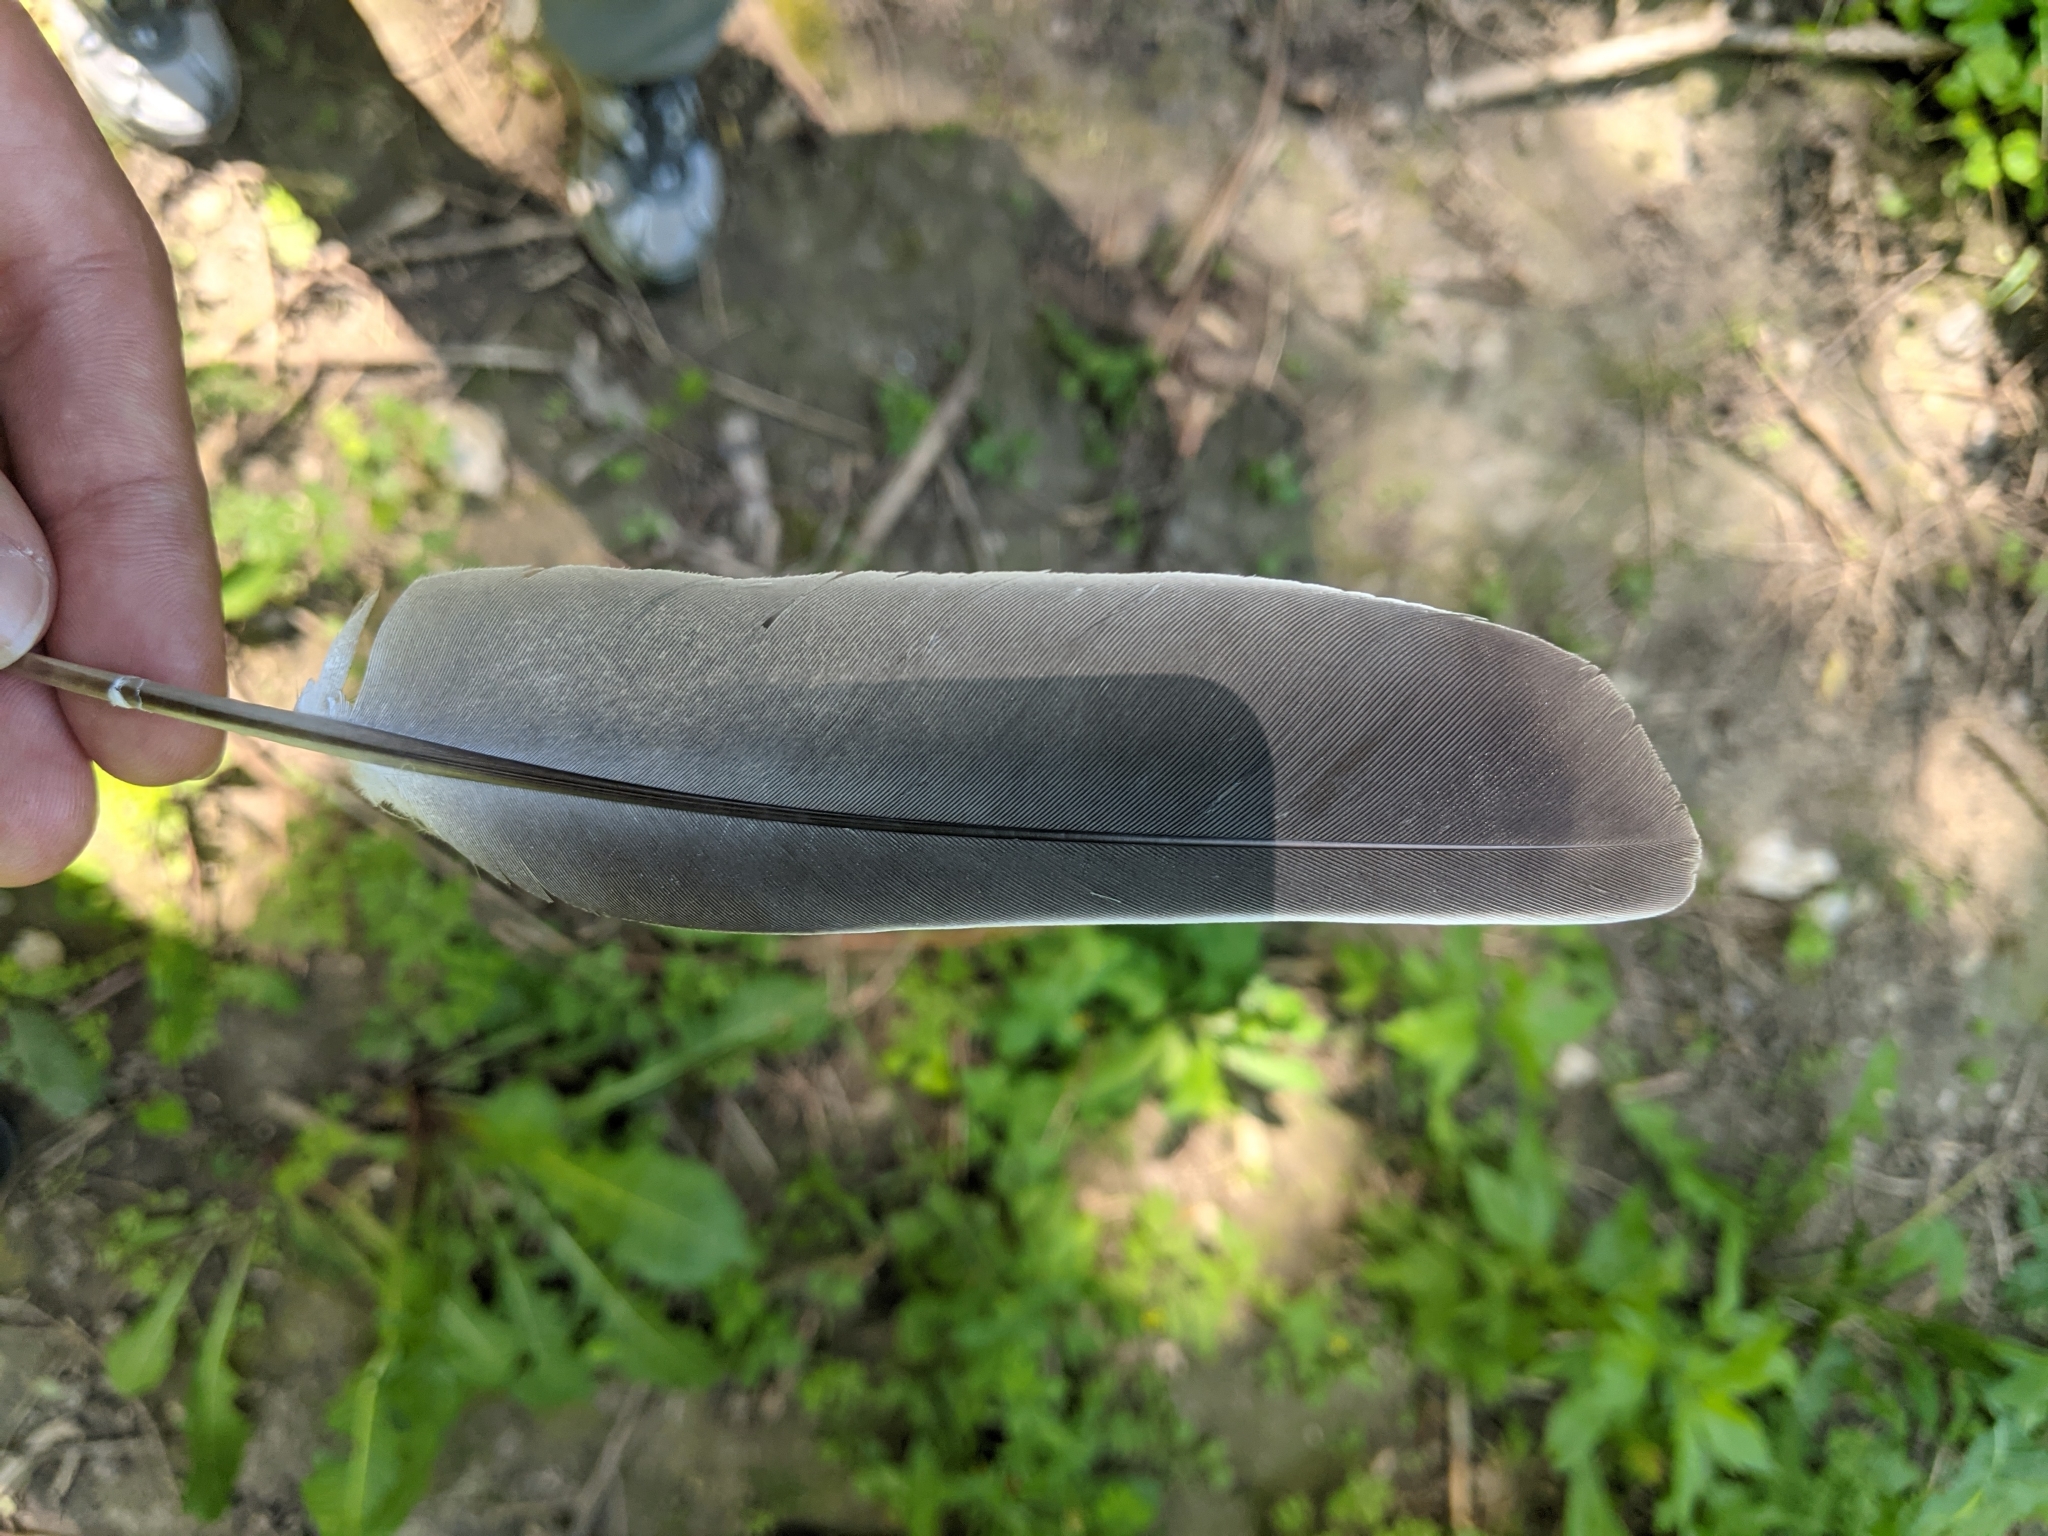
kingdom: Animalia
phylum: Chordata
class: Aves
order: Columbiformes
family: Columbidae
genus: Columba
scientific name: Columba palumbus
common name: Common wood pigeon
